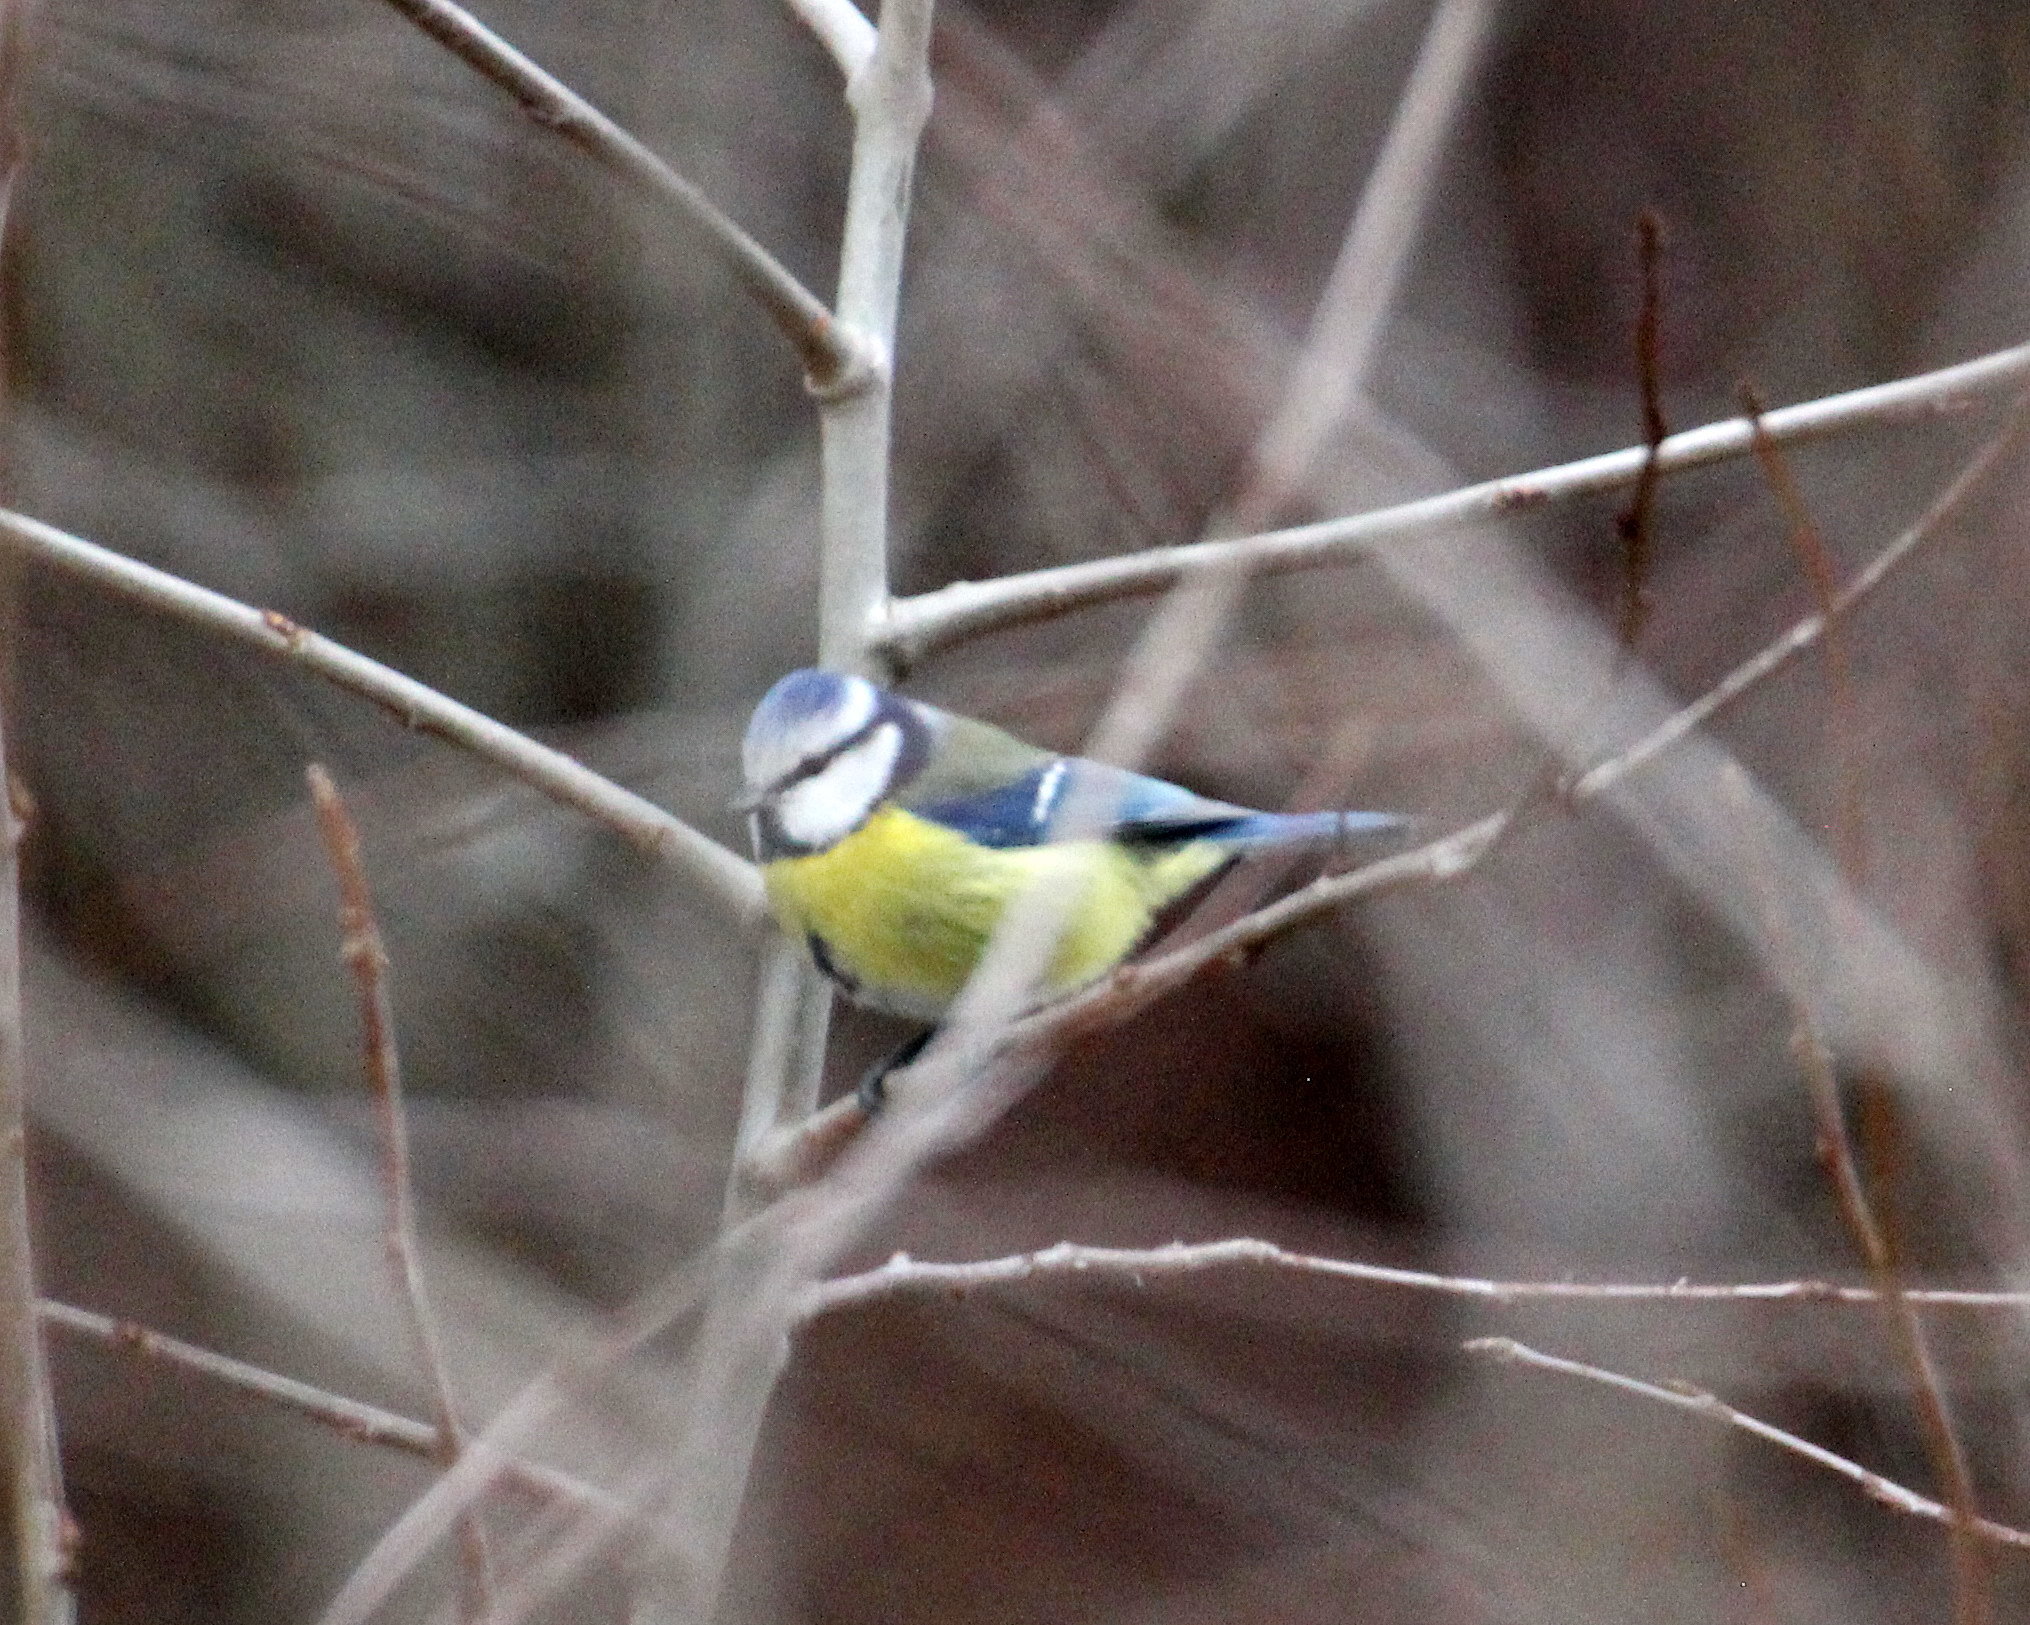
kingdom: Animalia
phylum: Chordata
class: Aves
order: Passeriformes
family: Paridae
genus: Cyanistes
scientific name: Cyanistes caeruleus
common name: Eurasian blue tit
